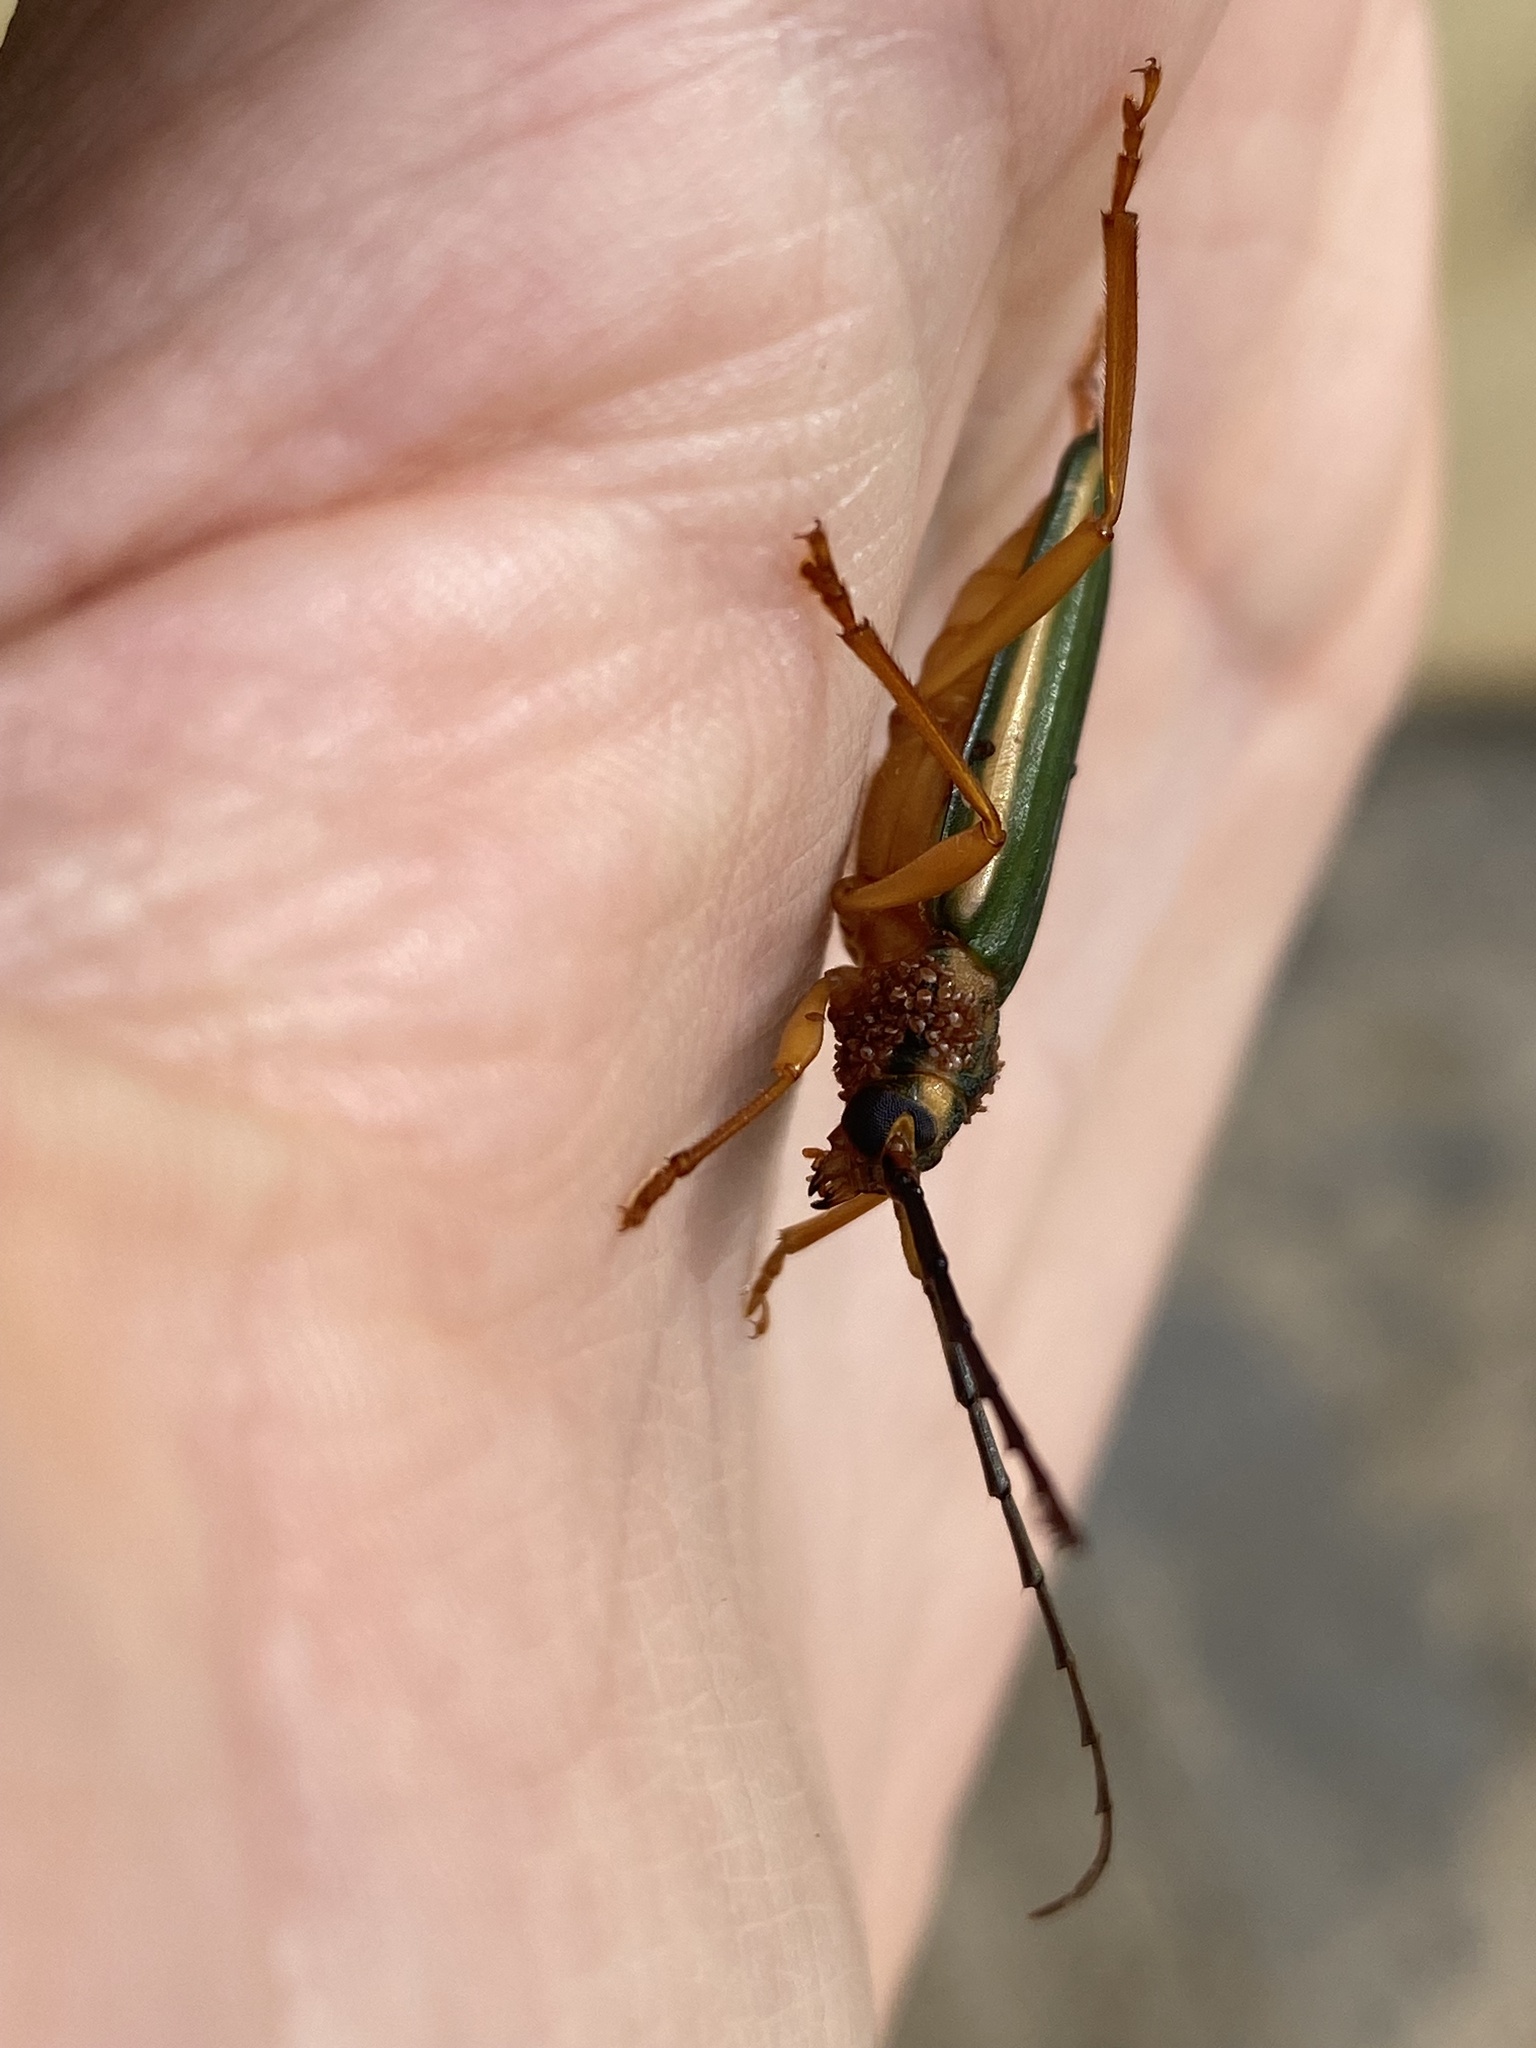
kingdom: Animalia
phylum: Arthropoda
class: Insecta
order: Coleoptera
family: Cerambycidae
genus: Chlorida
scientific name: Chlorida festiva
